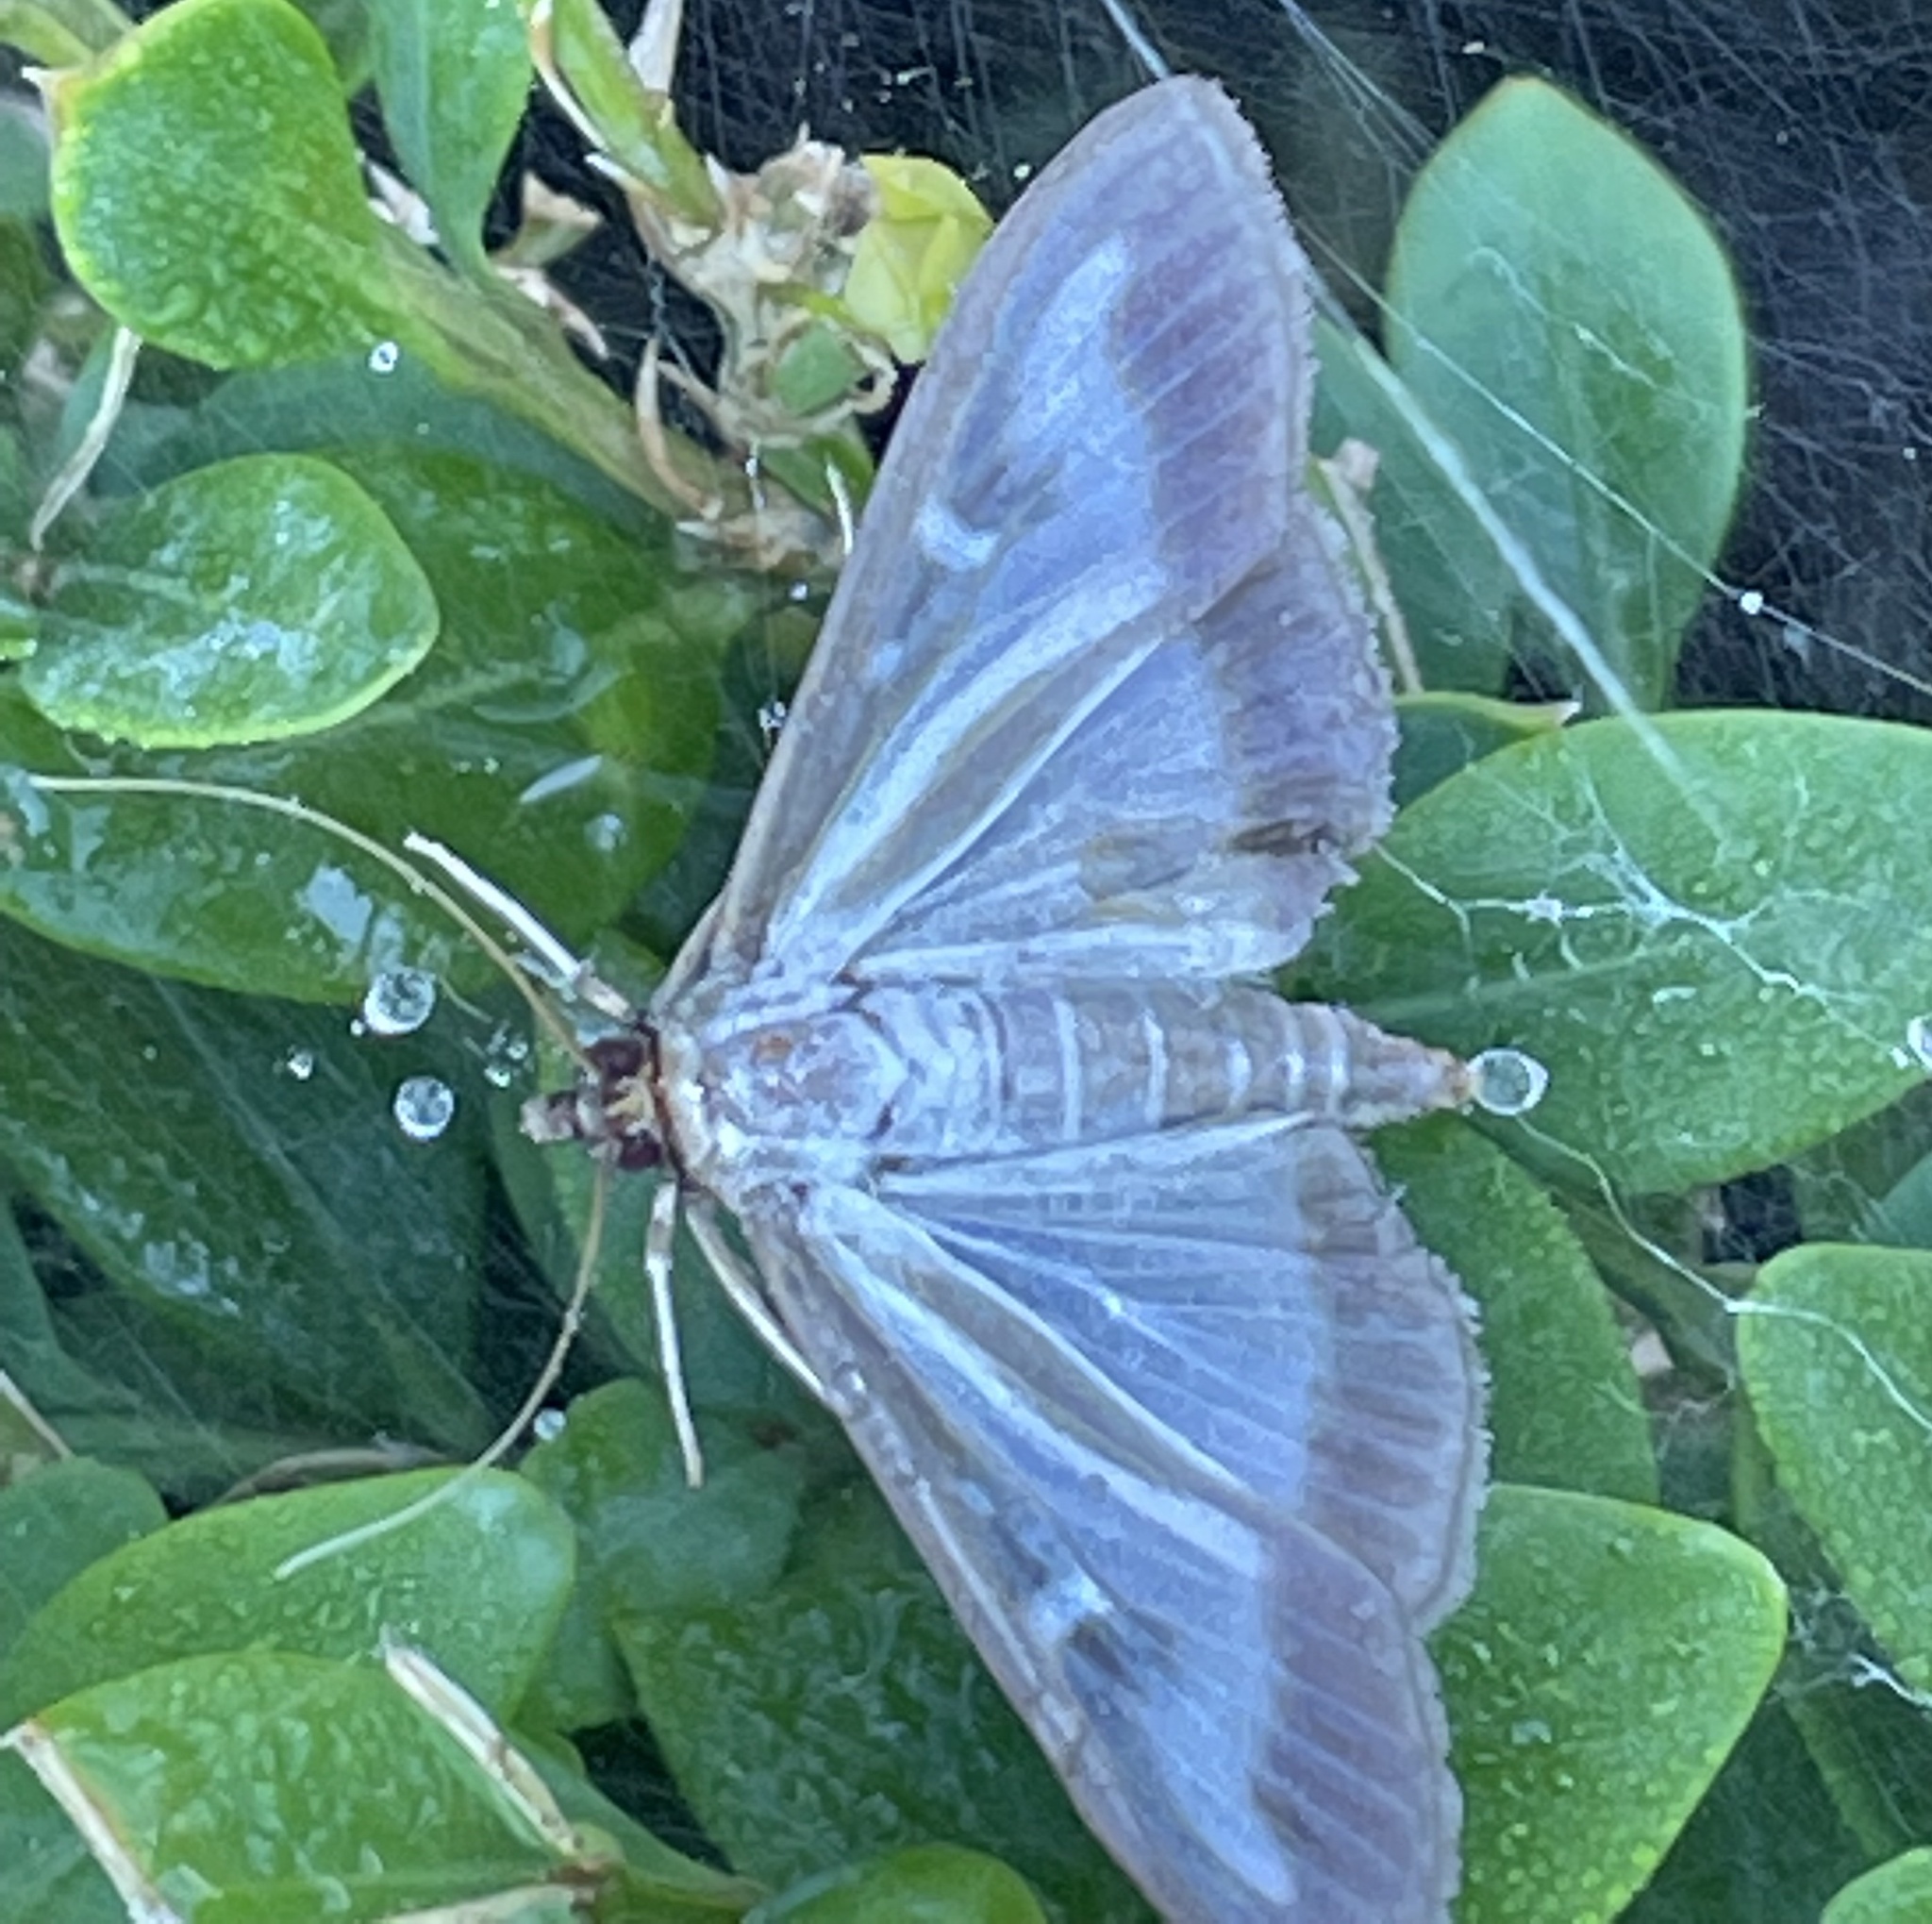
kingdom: Animalia
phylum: Arthropoda
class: Insecta
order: Lepidoptera
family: Crambidae
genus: Cydalima
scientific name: Cydalima perspectalis
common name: Box tree moth
